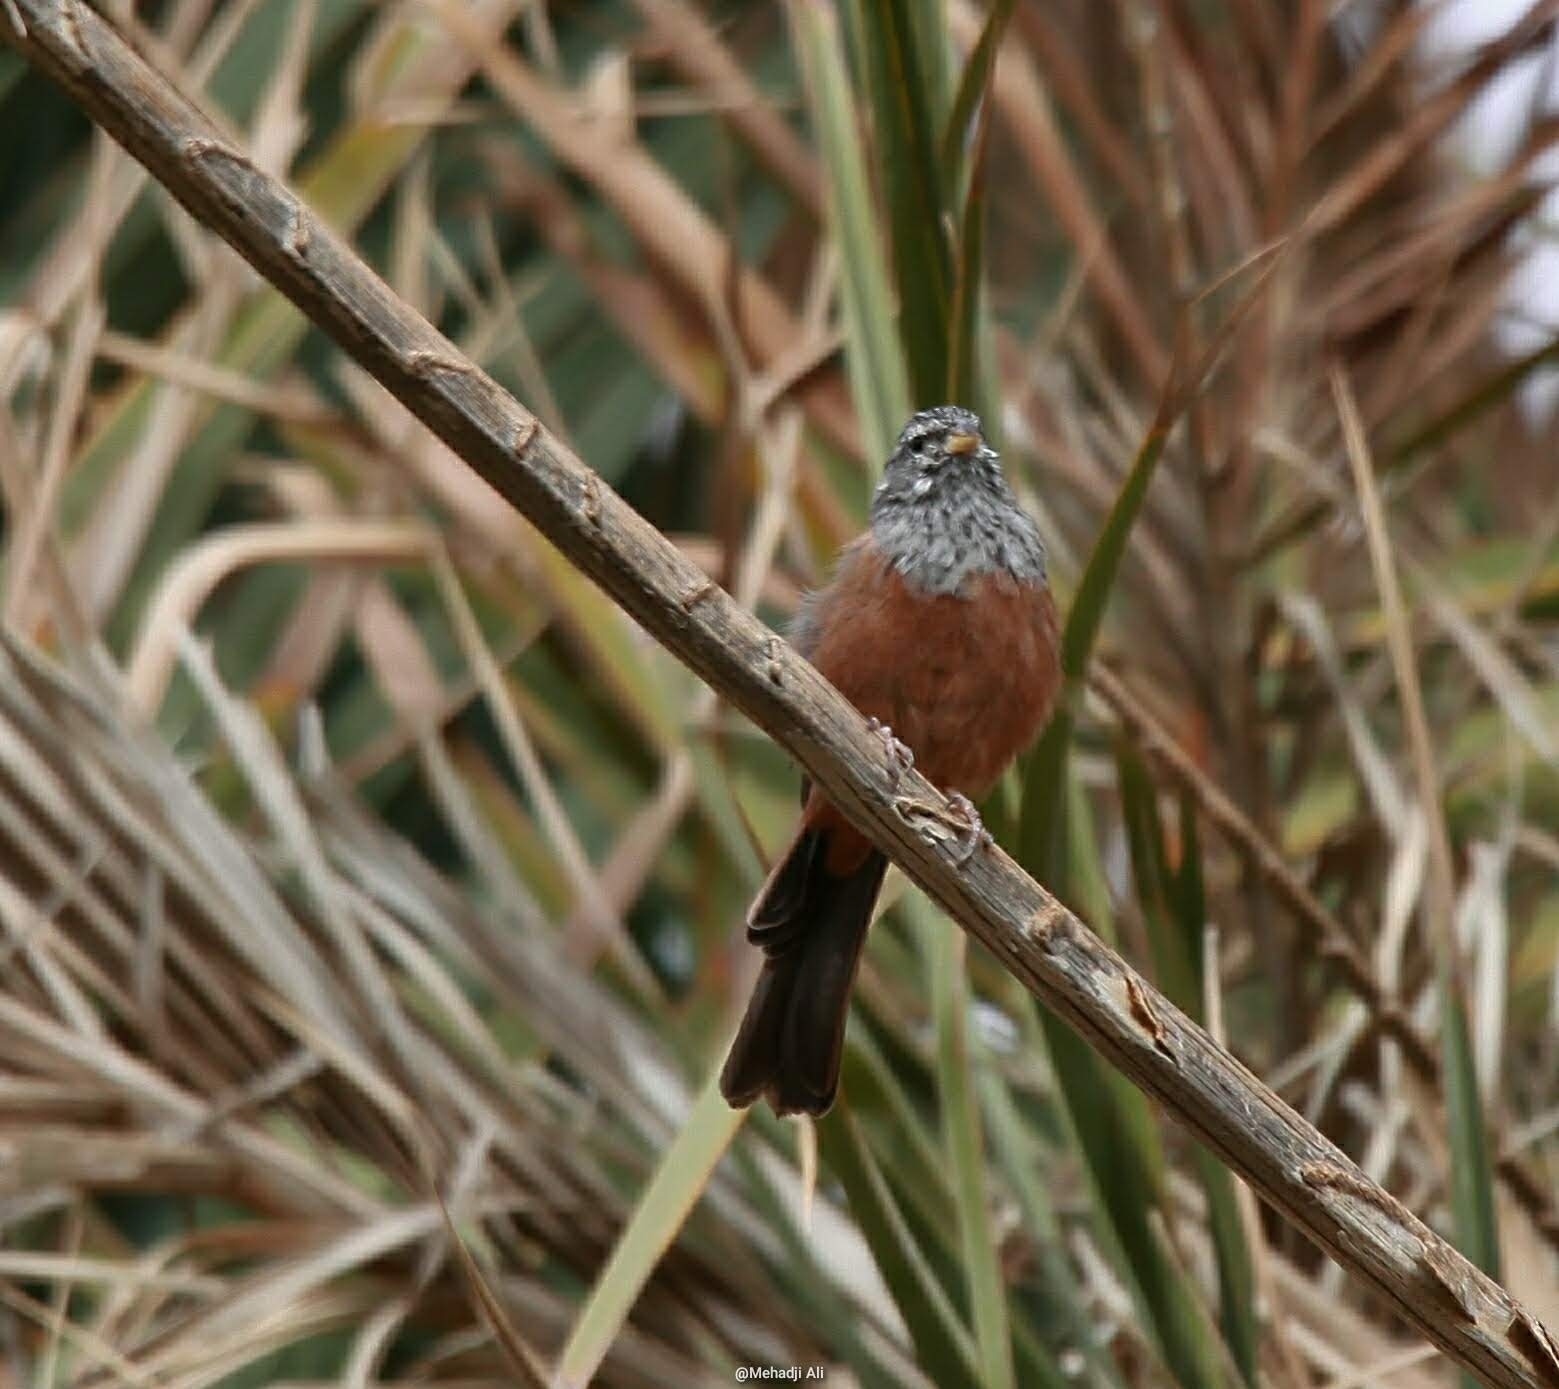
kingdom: Animalia
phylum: Chordata
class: Aves
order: Passeriformes
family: Emberizidae
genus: Emberiza
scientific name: Emberiza sahari
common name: House bunting
